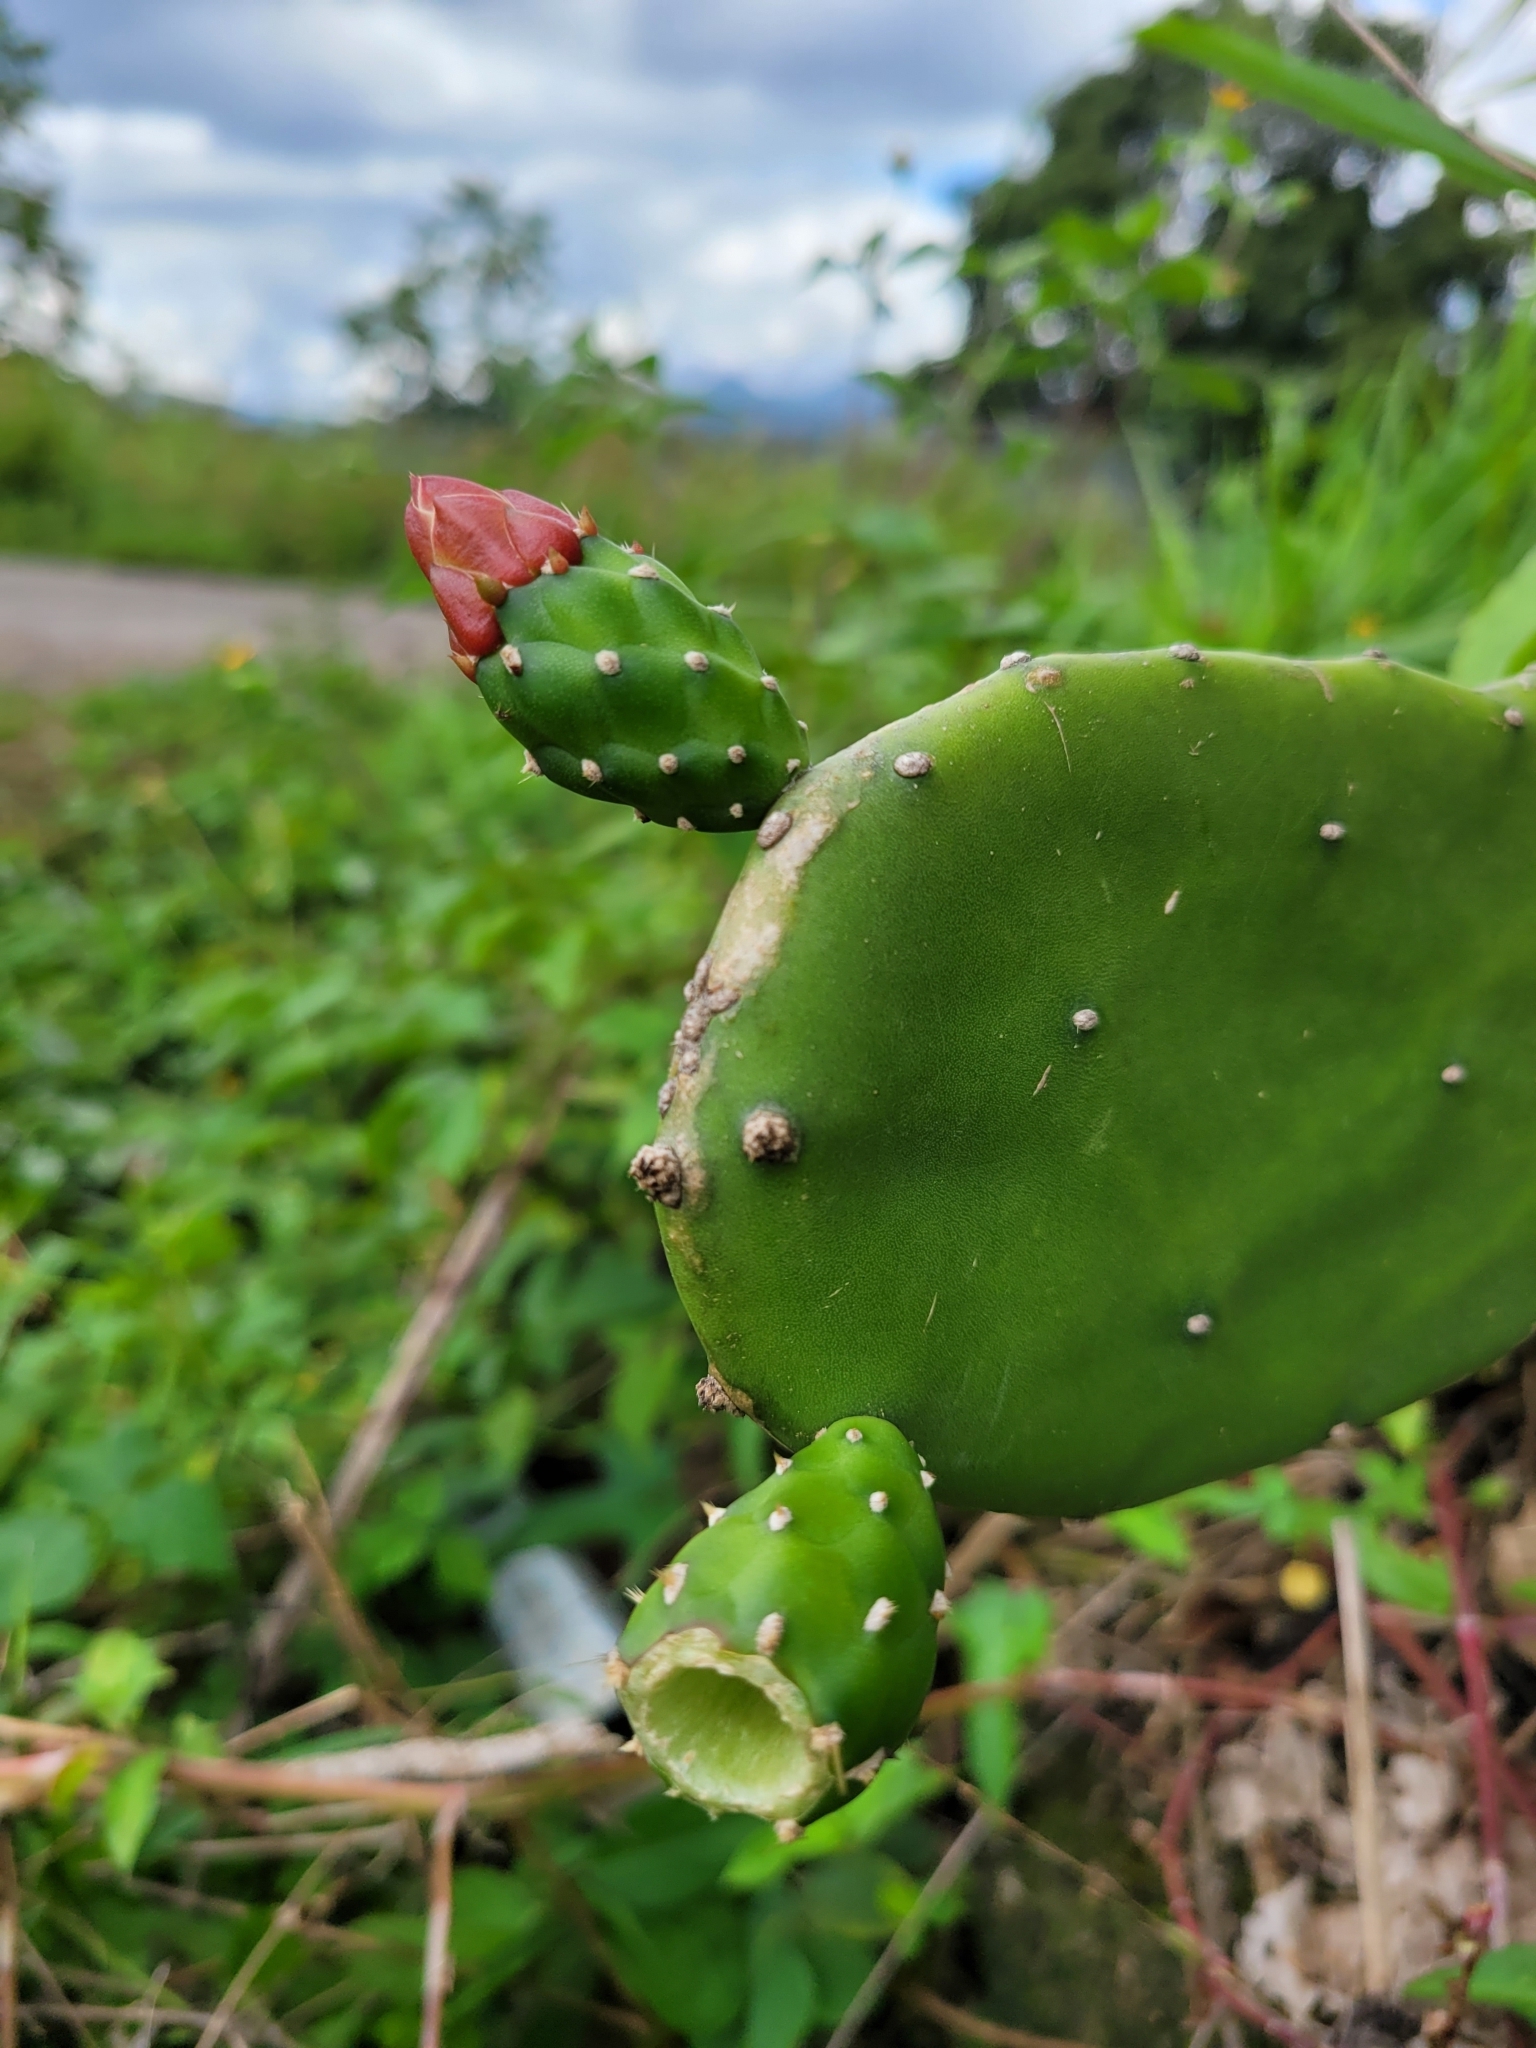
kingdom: Plantae
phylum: Tracheophyta
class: Magnoliopsida
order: Caryophyllales
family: Cactaceae
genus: Opuntia
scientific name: Opuntia cochenillifera
